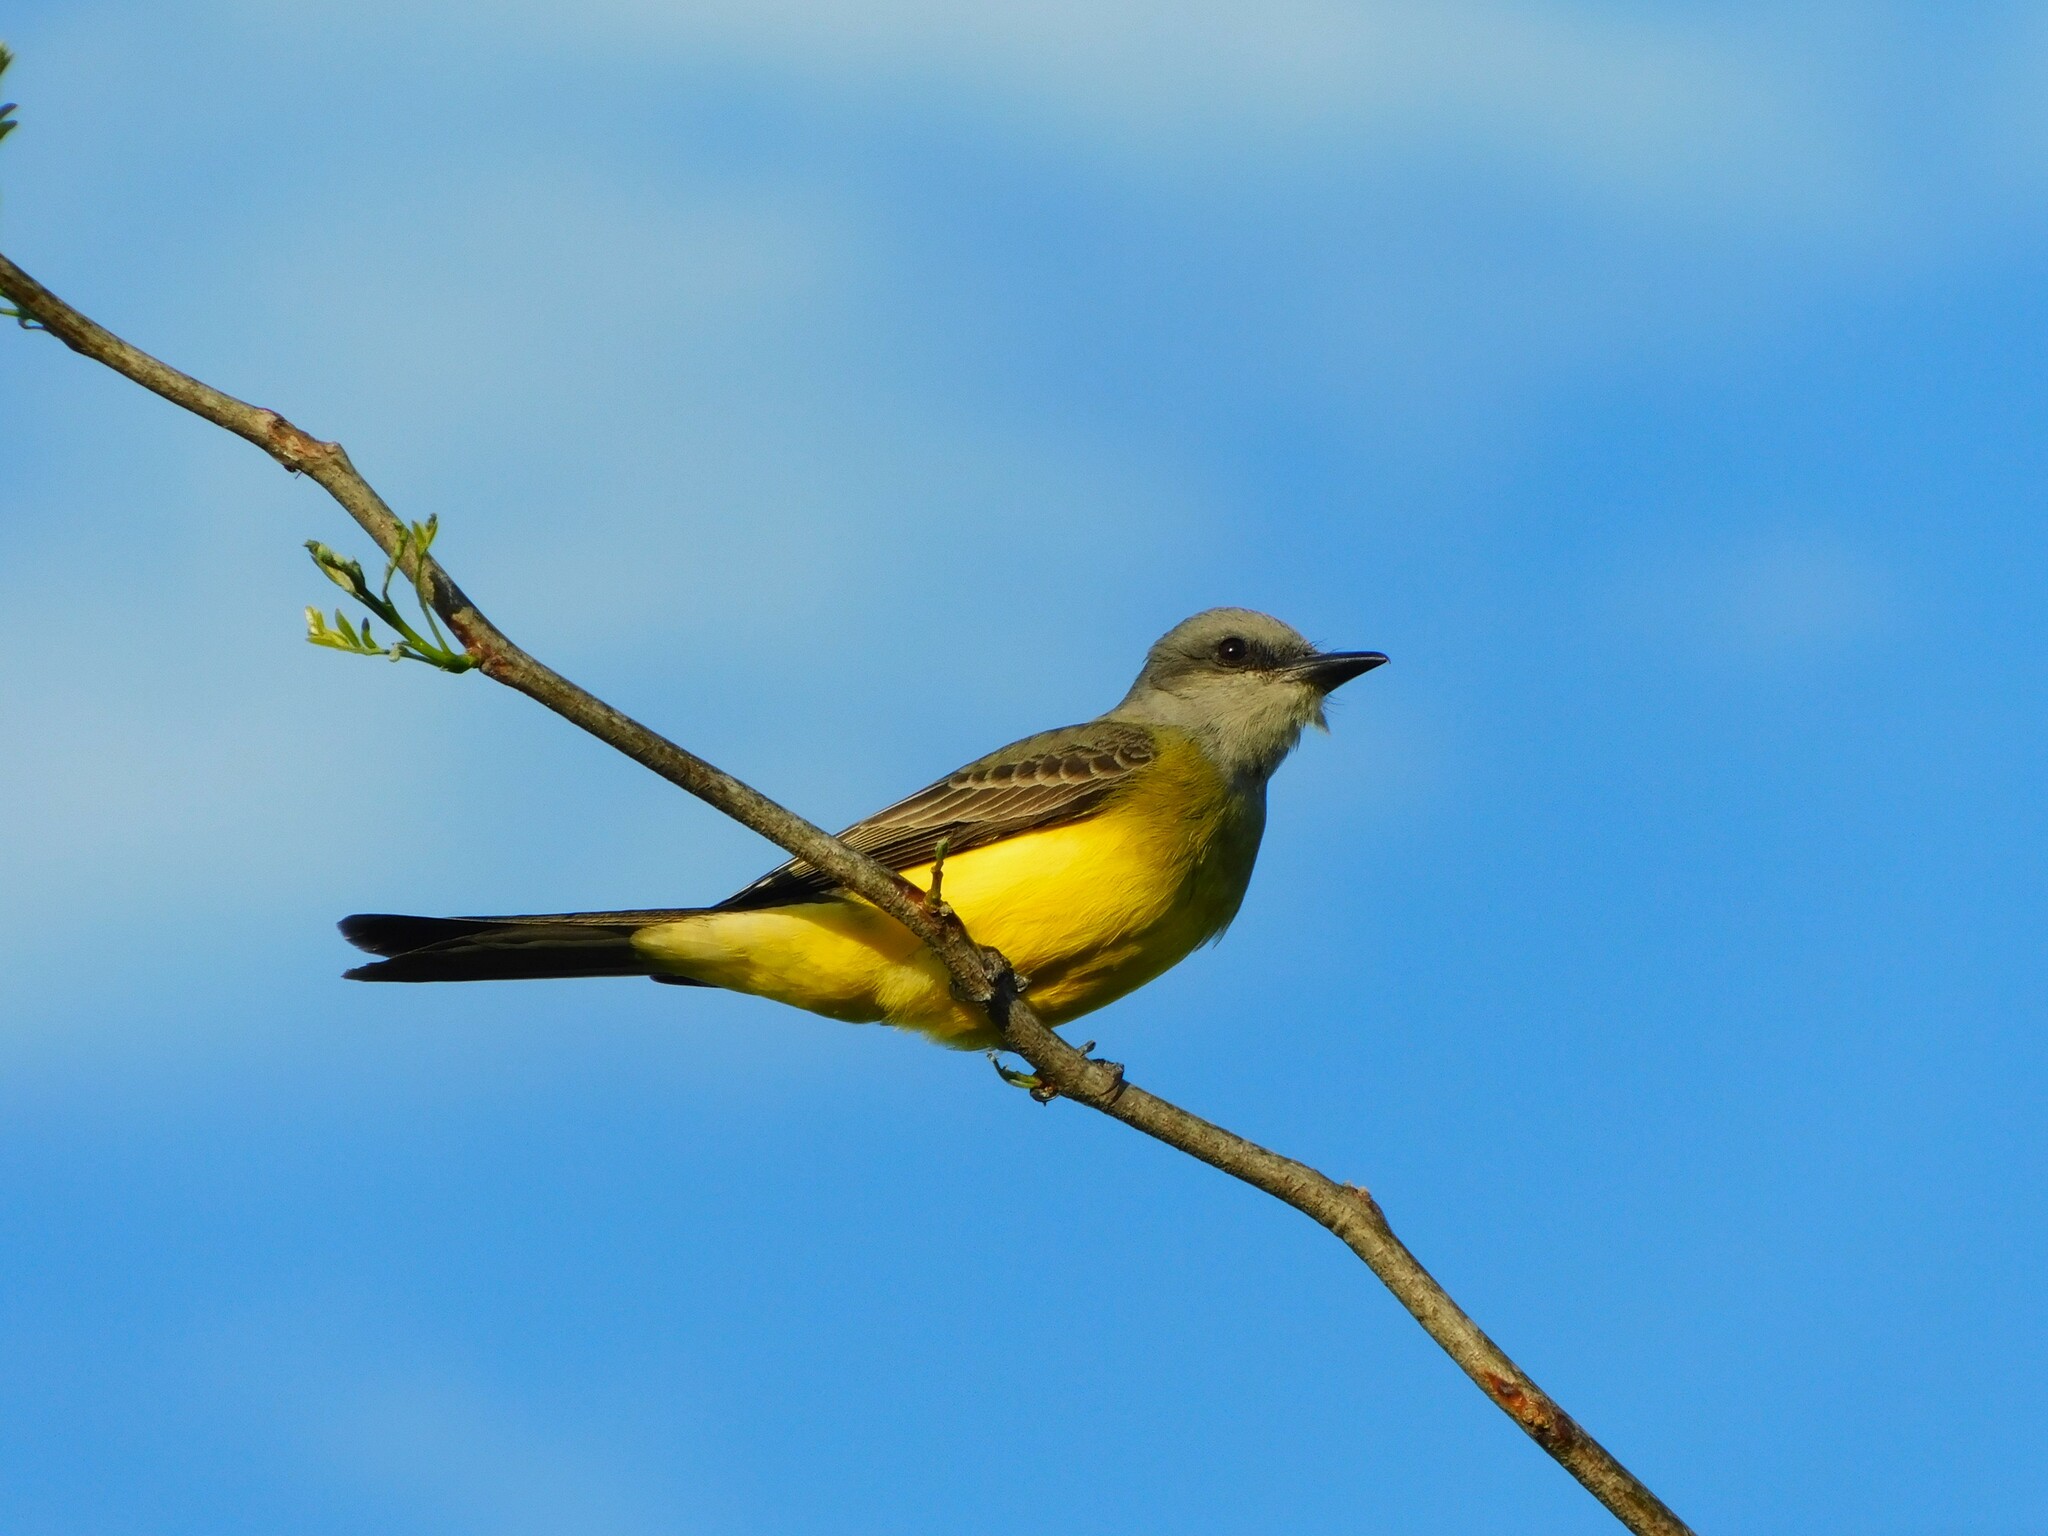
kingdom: Animalia
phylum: Chordata
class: Aves
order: Passeriformes
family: Tyrannidae
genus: Tyrannus
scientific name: Tyrannus melancholicus
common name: Tropical kingbird
